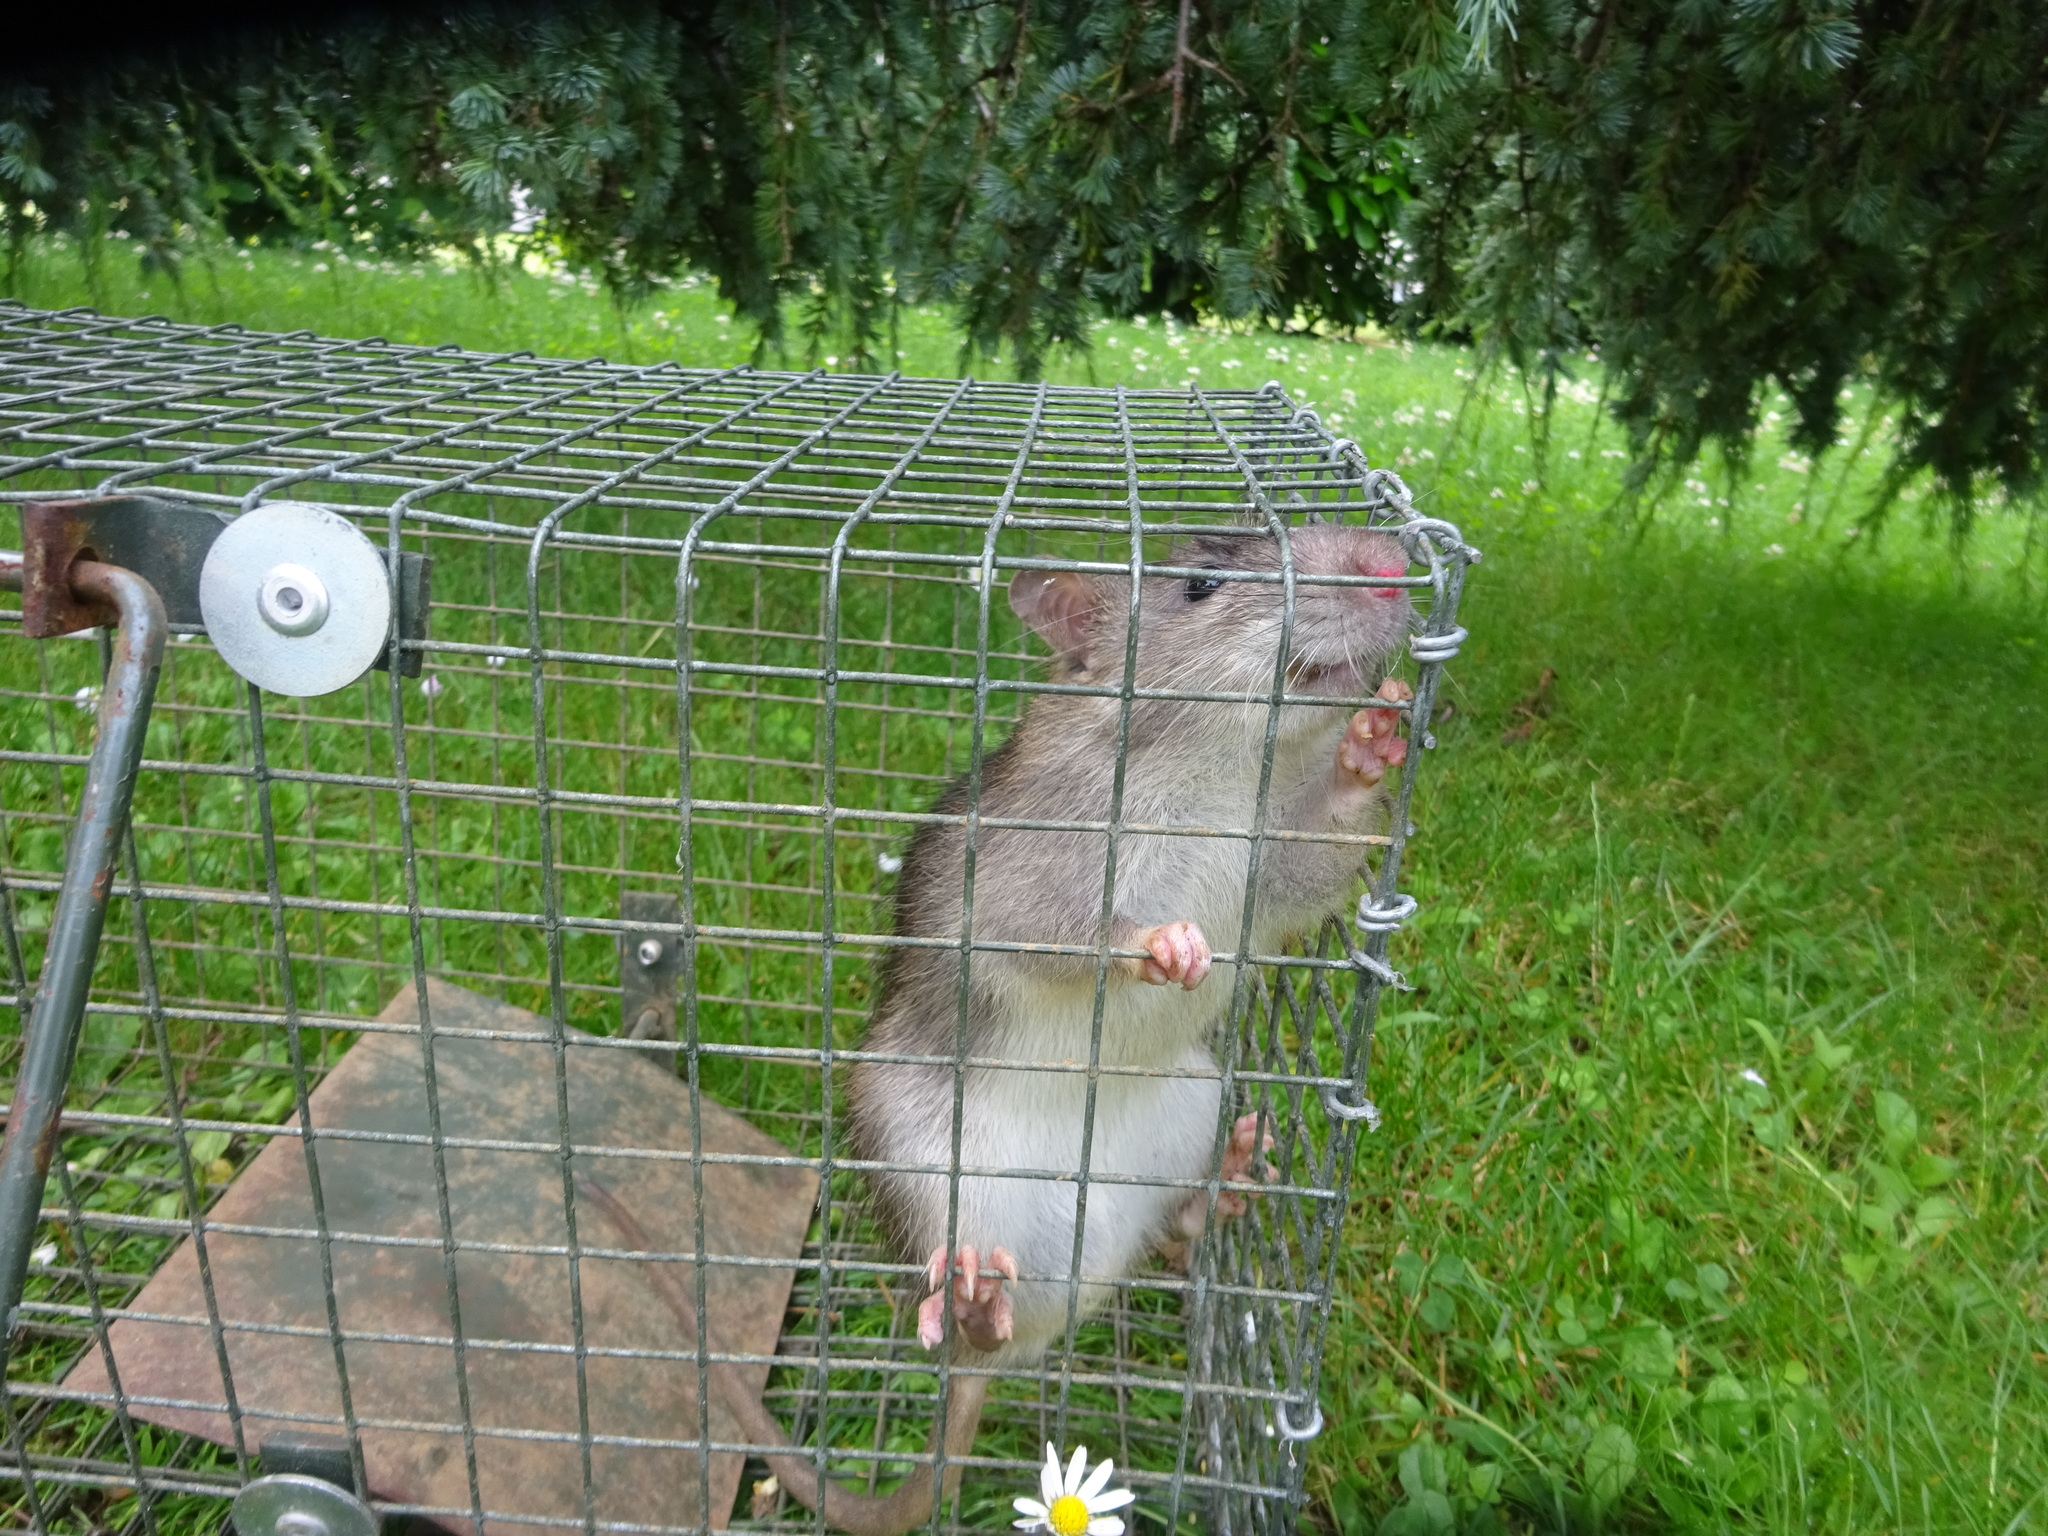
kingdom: Animalia
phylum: Chordata
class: Mammalia
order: Rodentia
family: Muridae
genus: Rattus
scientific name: Rattus norvegicus
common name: Brown rat
